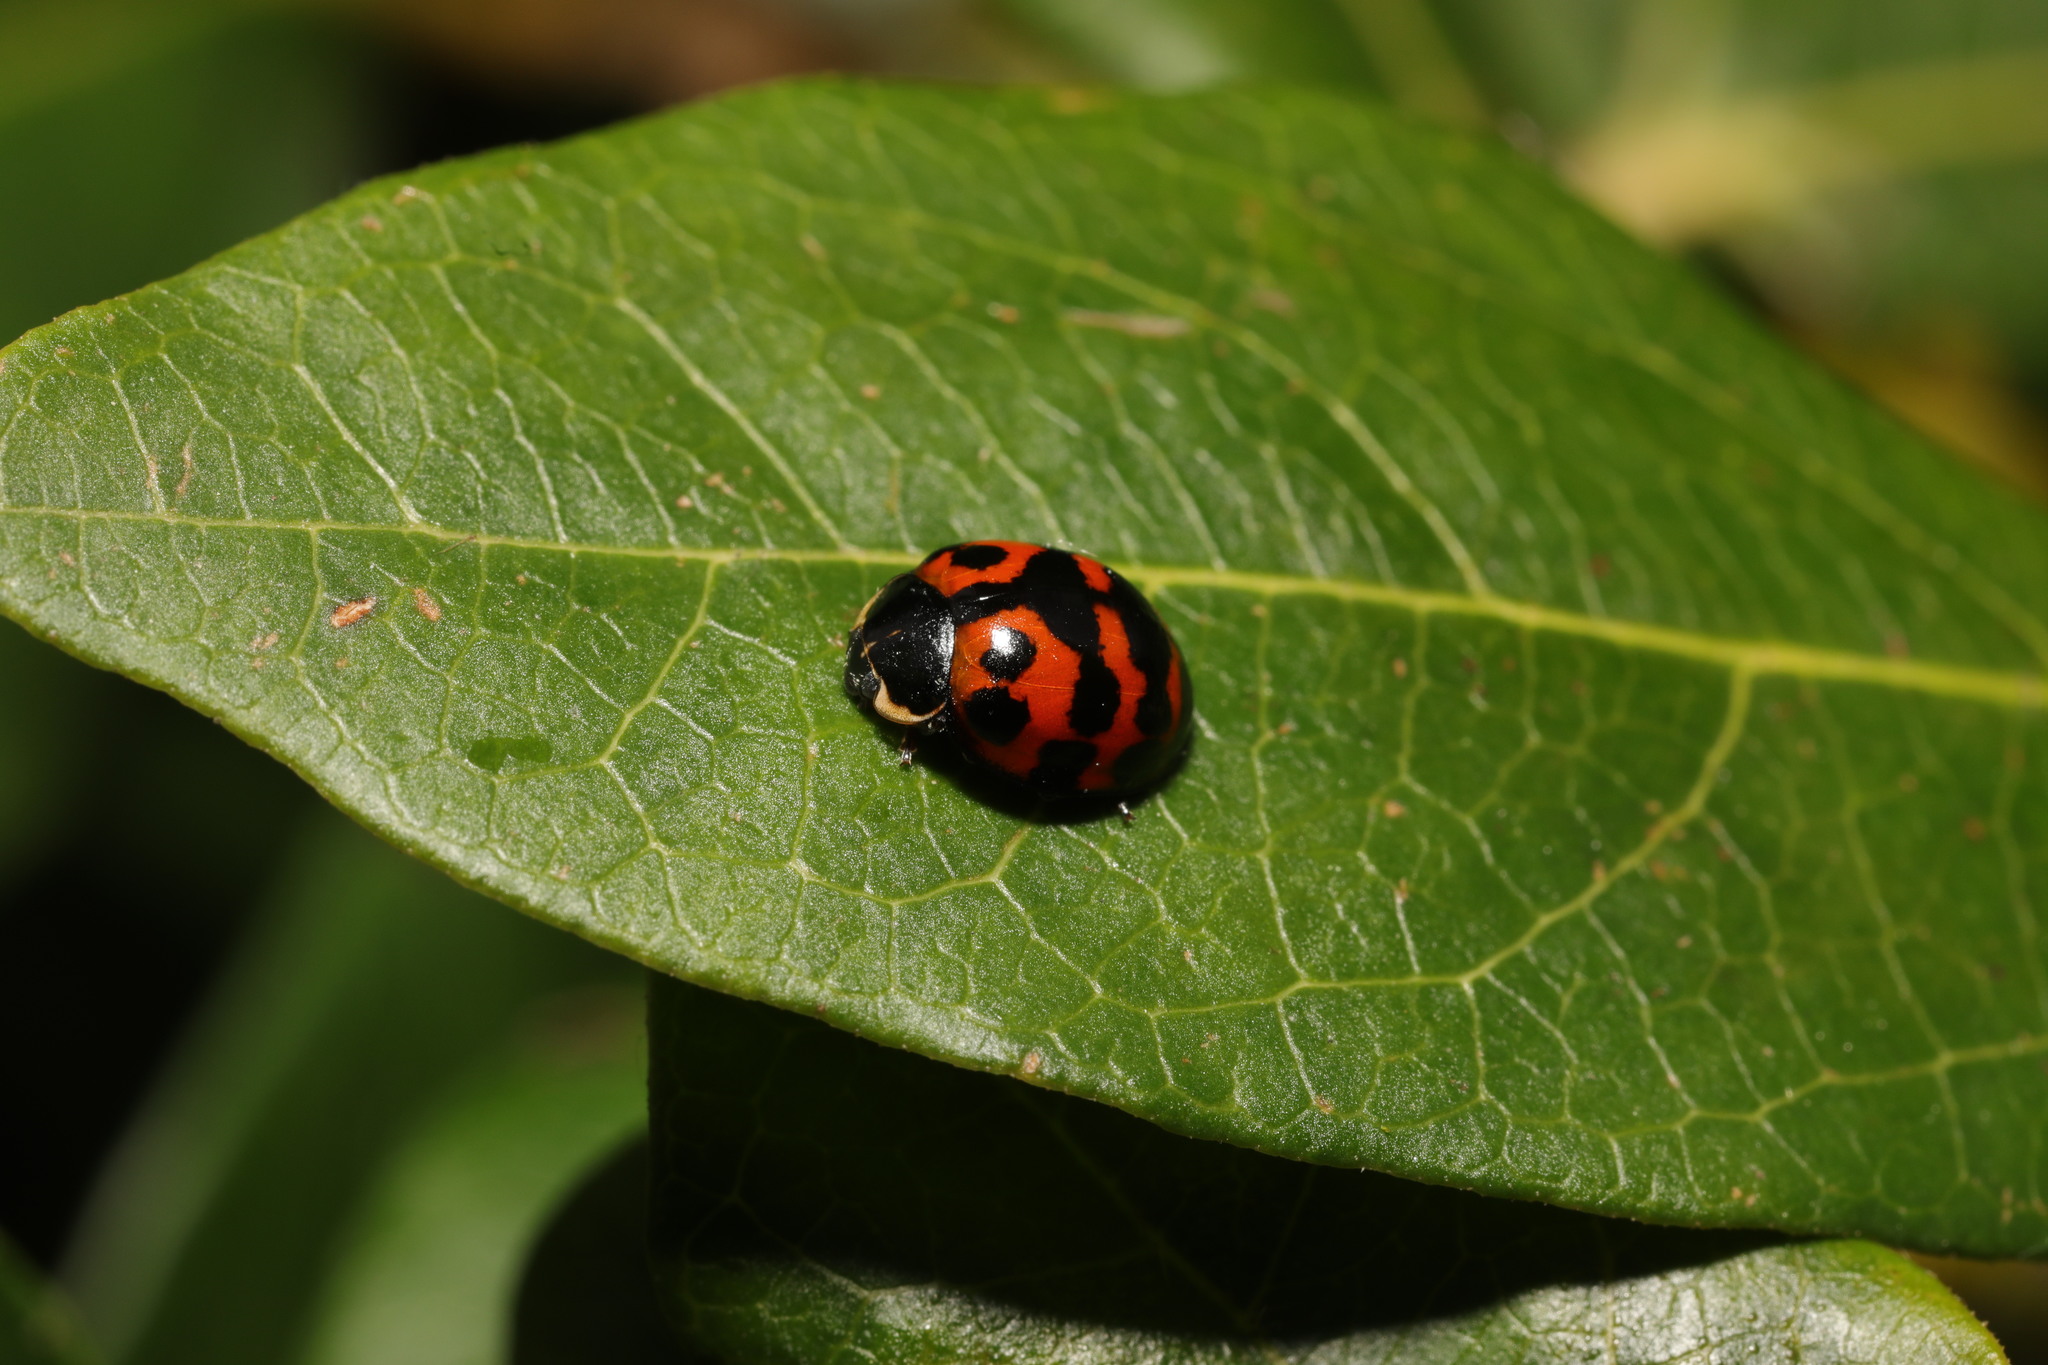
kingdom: Animalia
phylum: Arthropoda
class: Insecta
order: Coleoptera
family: Coccinellidae
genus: Harmonia
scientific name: Harmonia axyridis
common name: Harlequin ladybird
